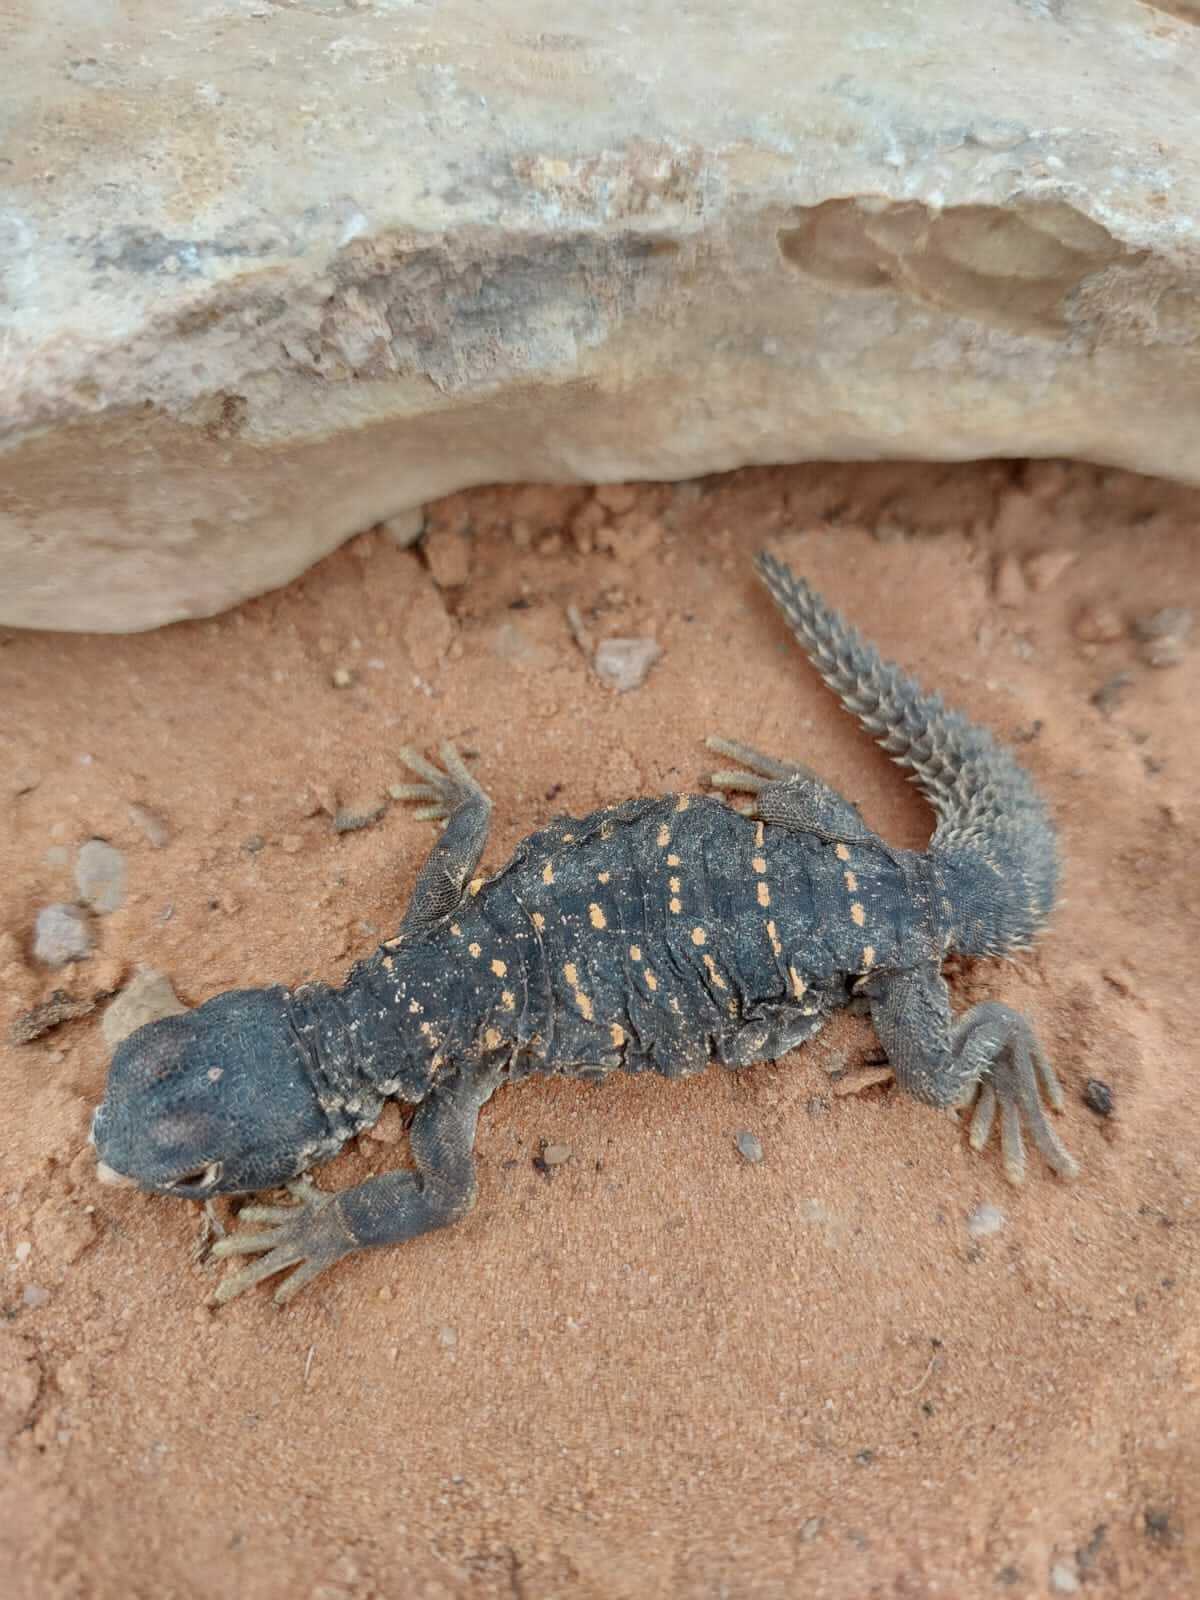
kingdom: Animalia
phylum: Chordata
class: Squamata
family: Agamidae
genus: Uromastyx
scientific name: Uromastyx aegyptia
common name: Egyptian mastigure
